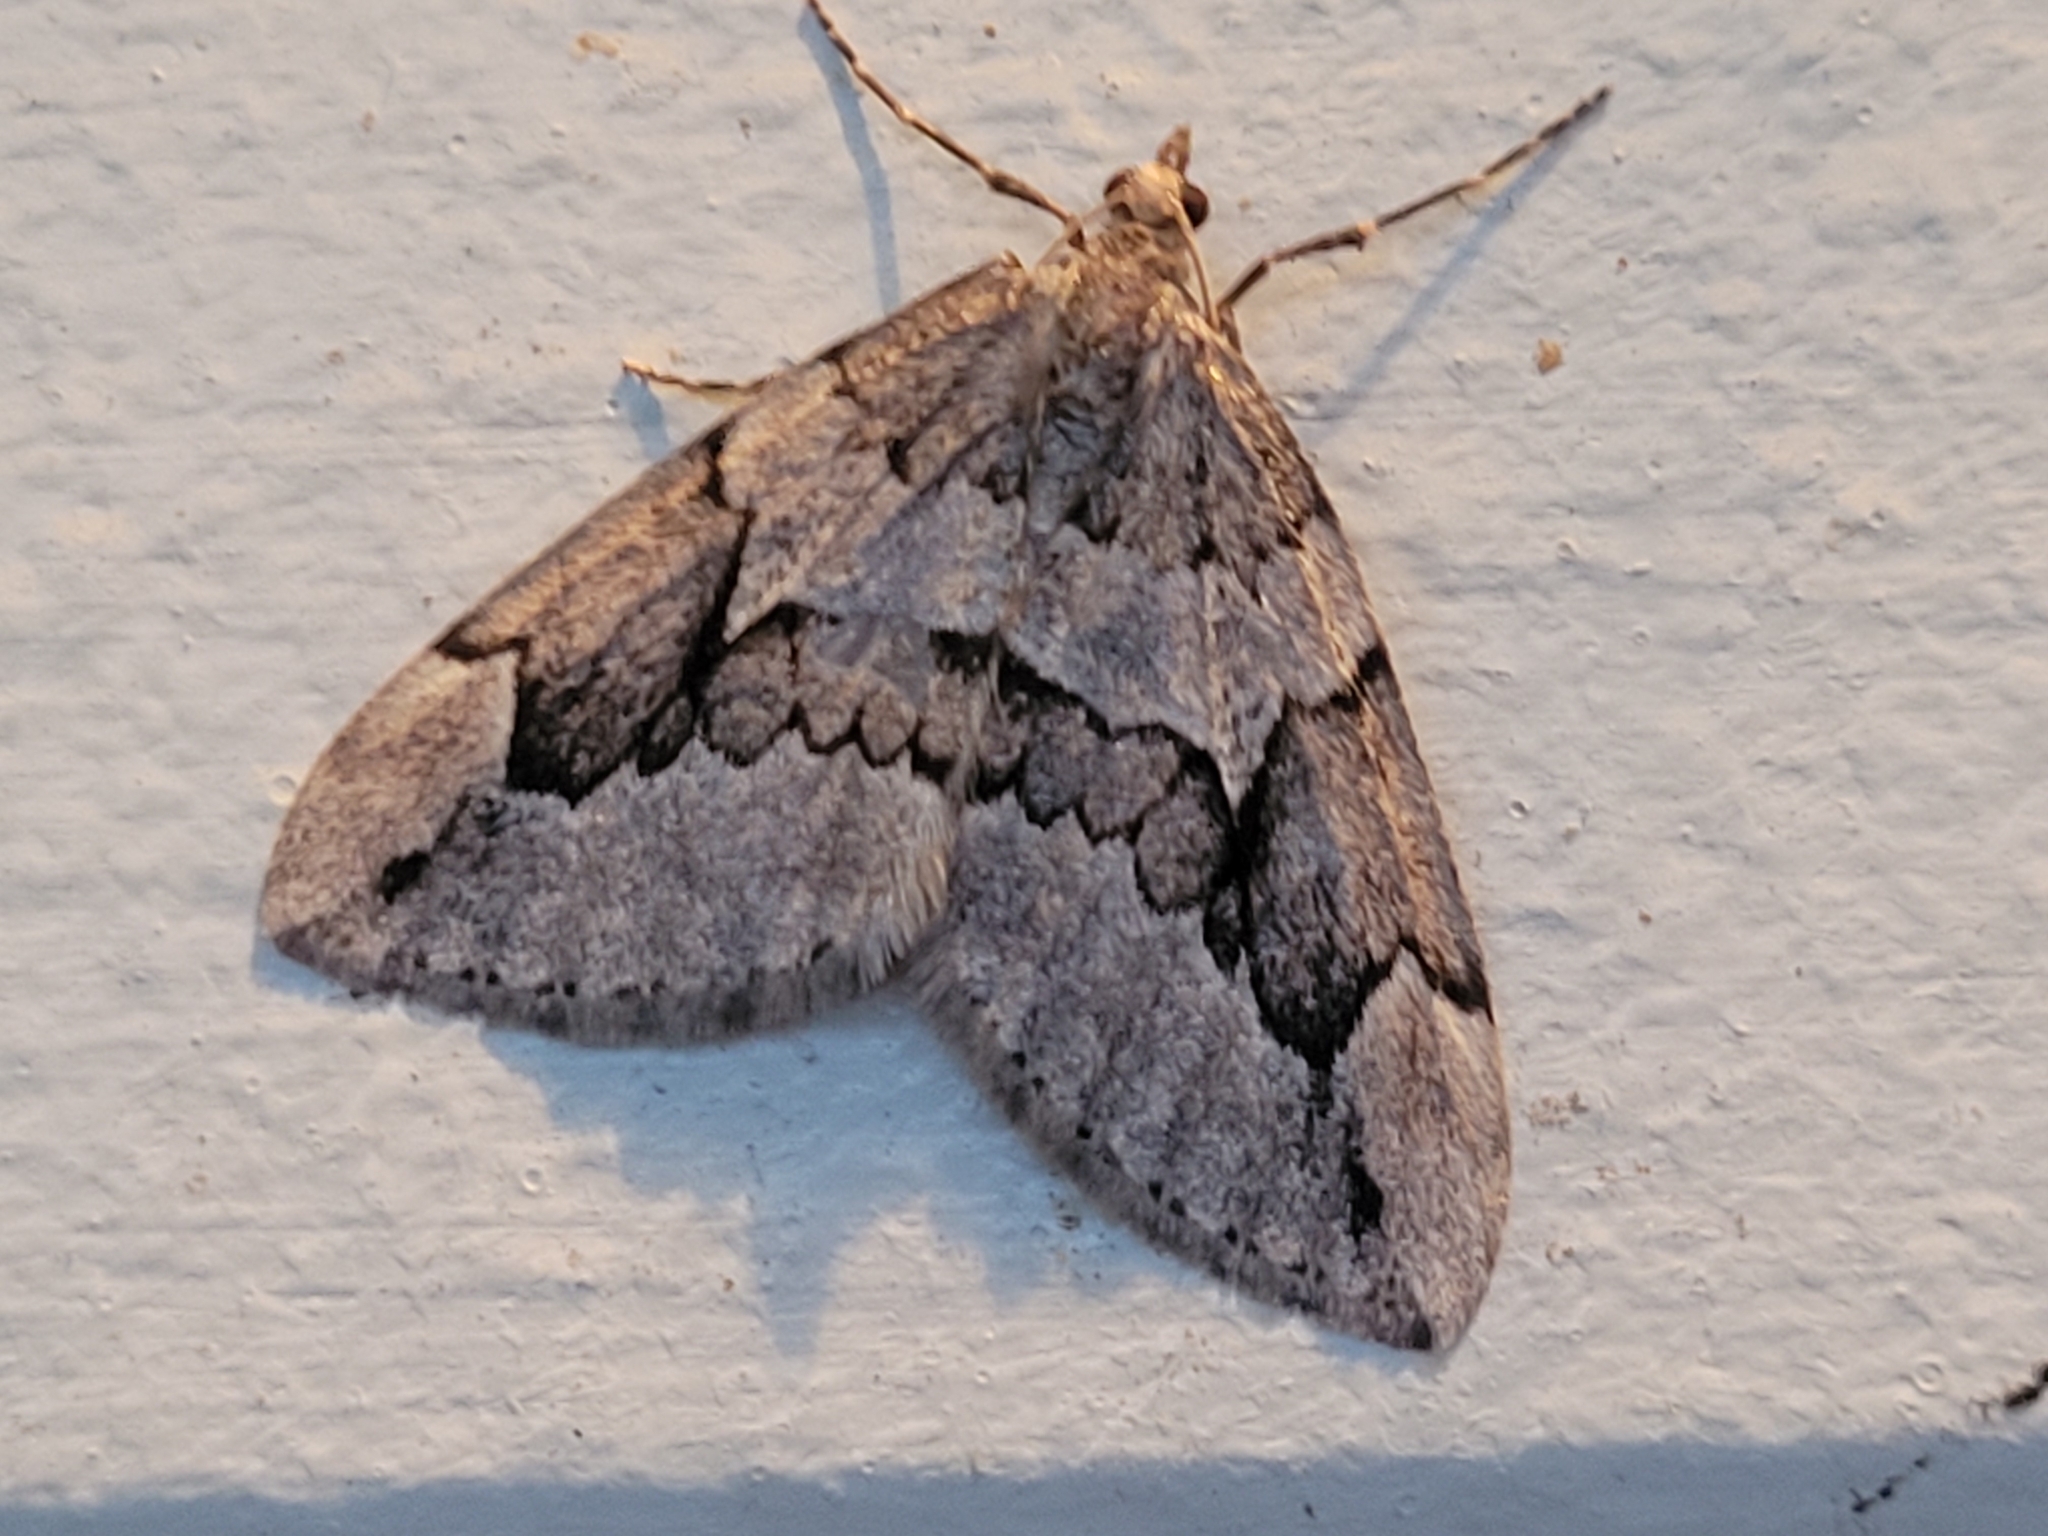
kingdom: Animalia
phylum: Arthropoda
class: Insecta
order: Lepidoptera
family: Geometridae
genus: Thera
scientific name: Thera juniperata
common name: Juniper carpet
